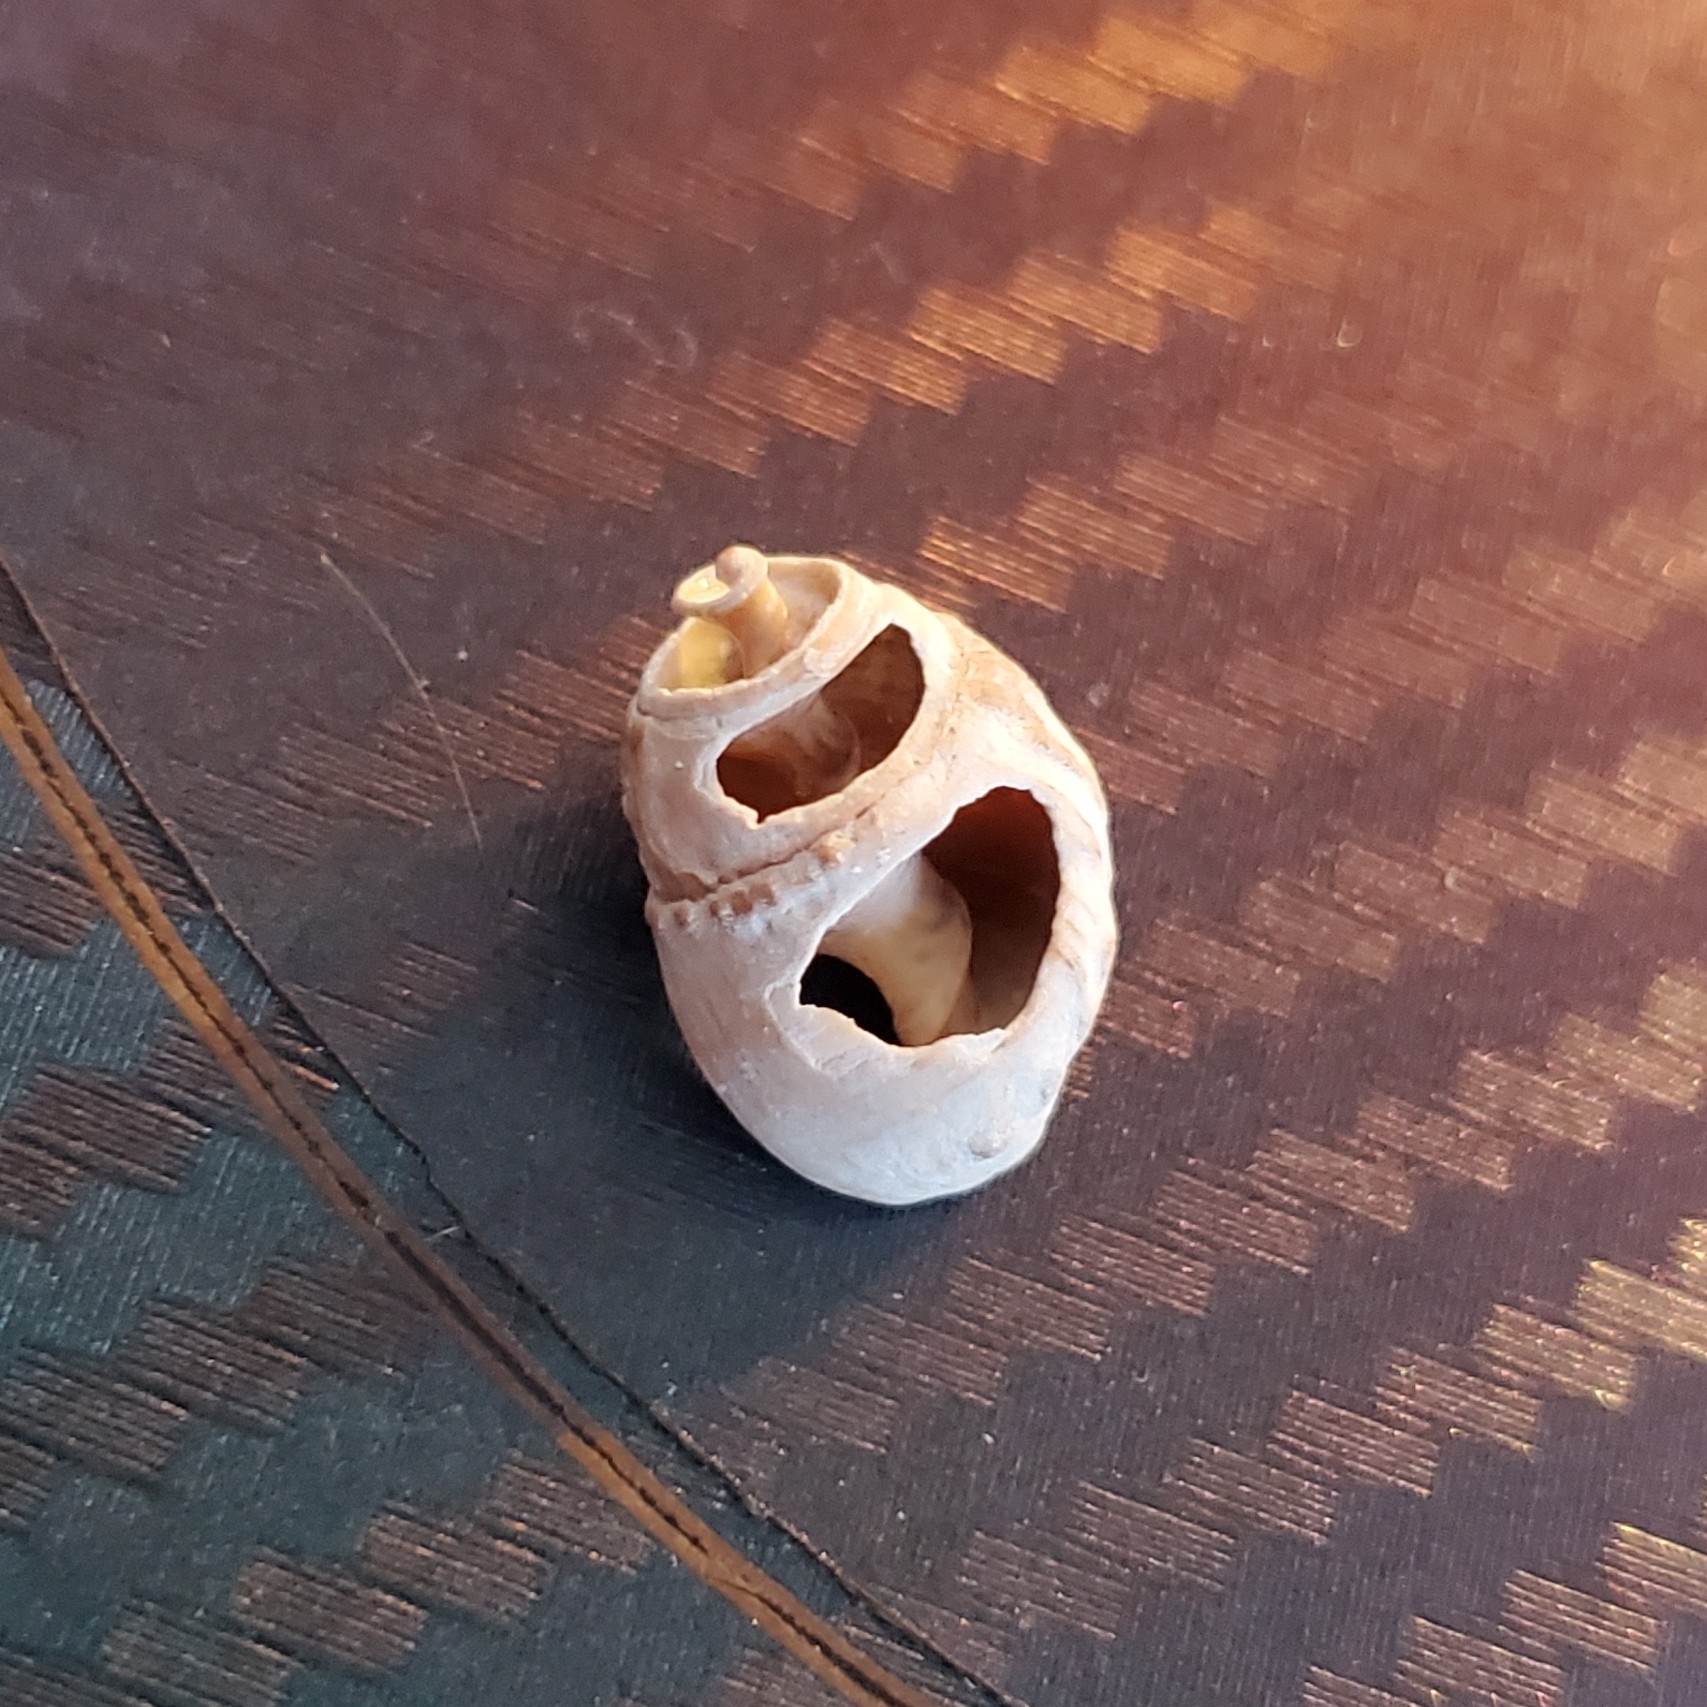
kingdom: Animalia
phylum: Mollusca
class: Gastropoda
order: Neogastropoda
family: Nassariidae
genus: Ilyanassa
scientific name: Ilyanassa obsoleta
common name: Eastern mudsnail
